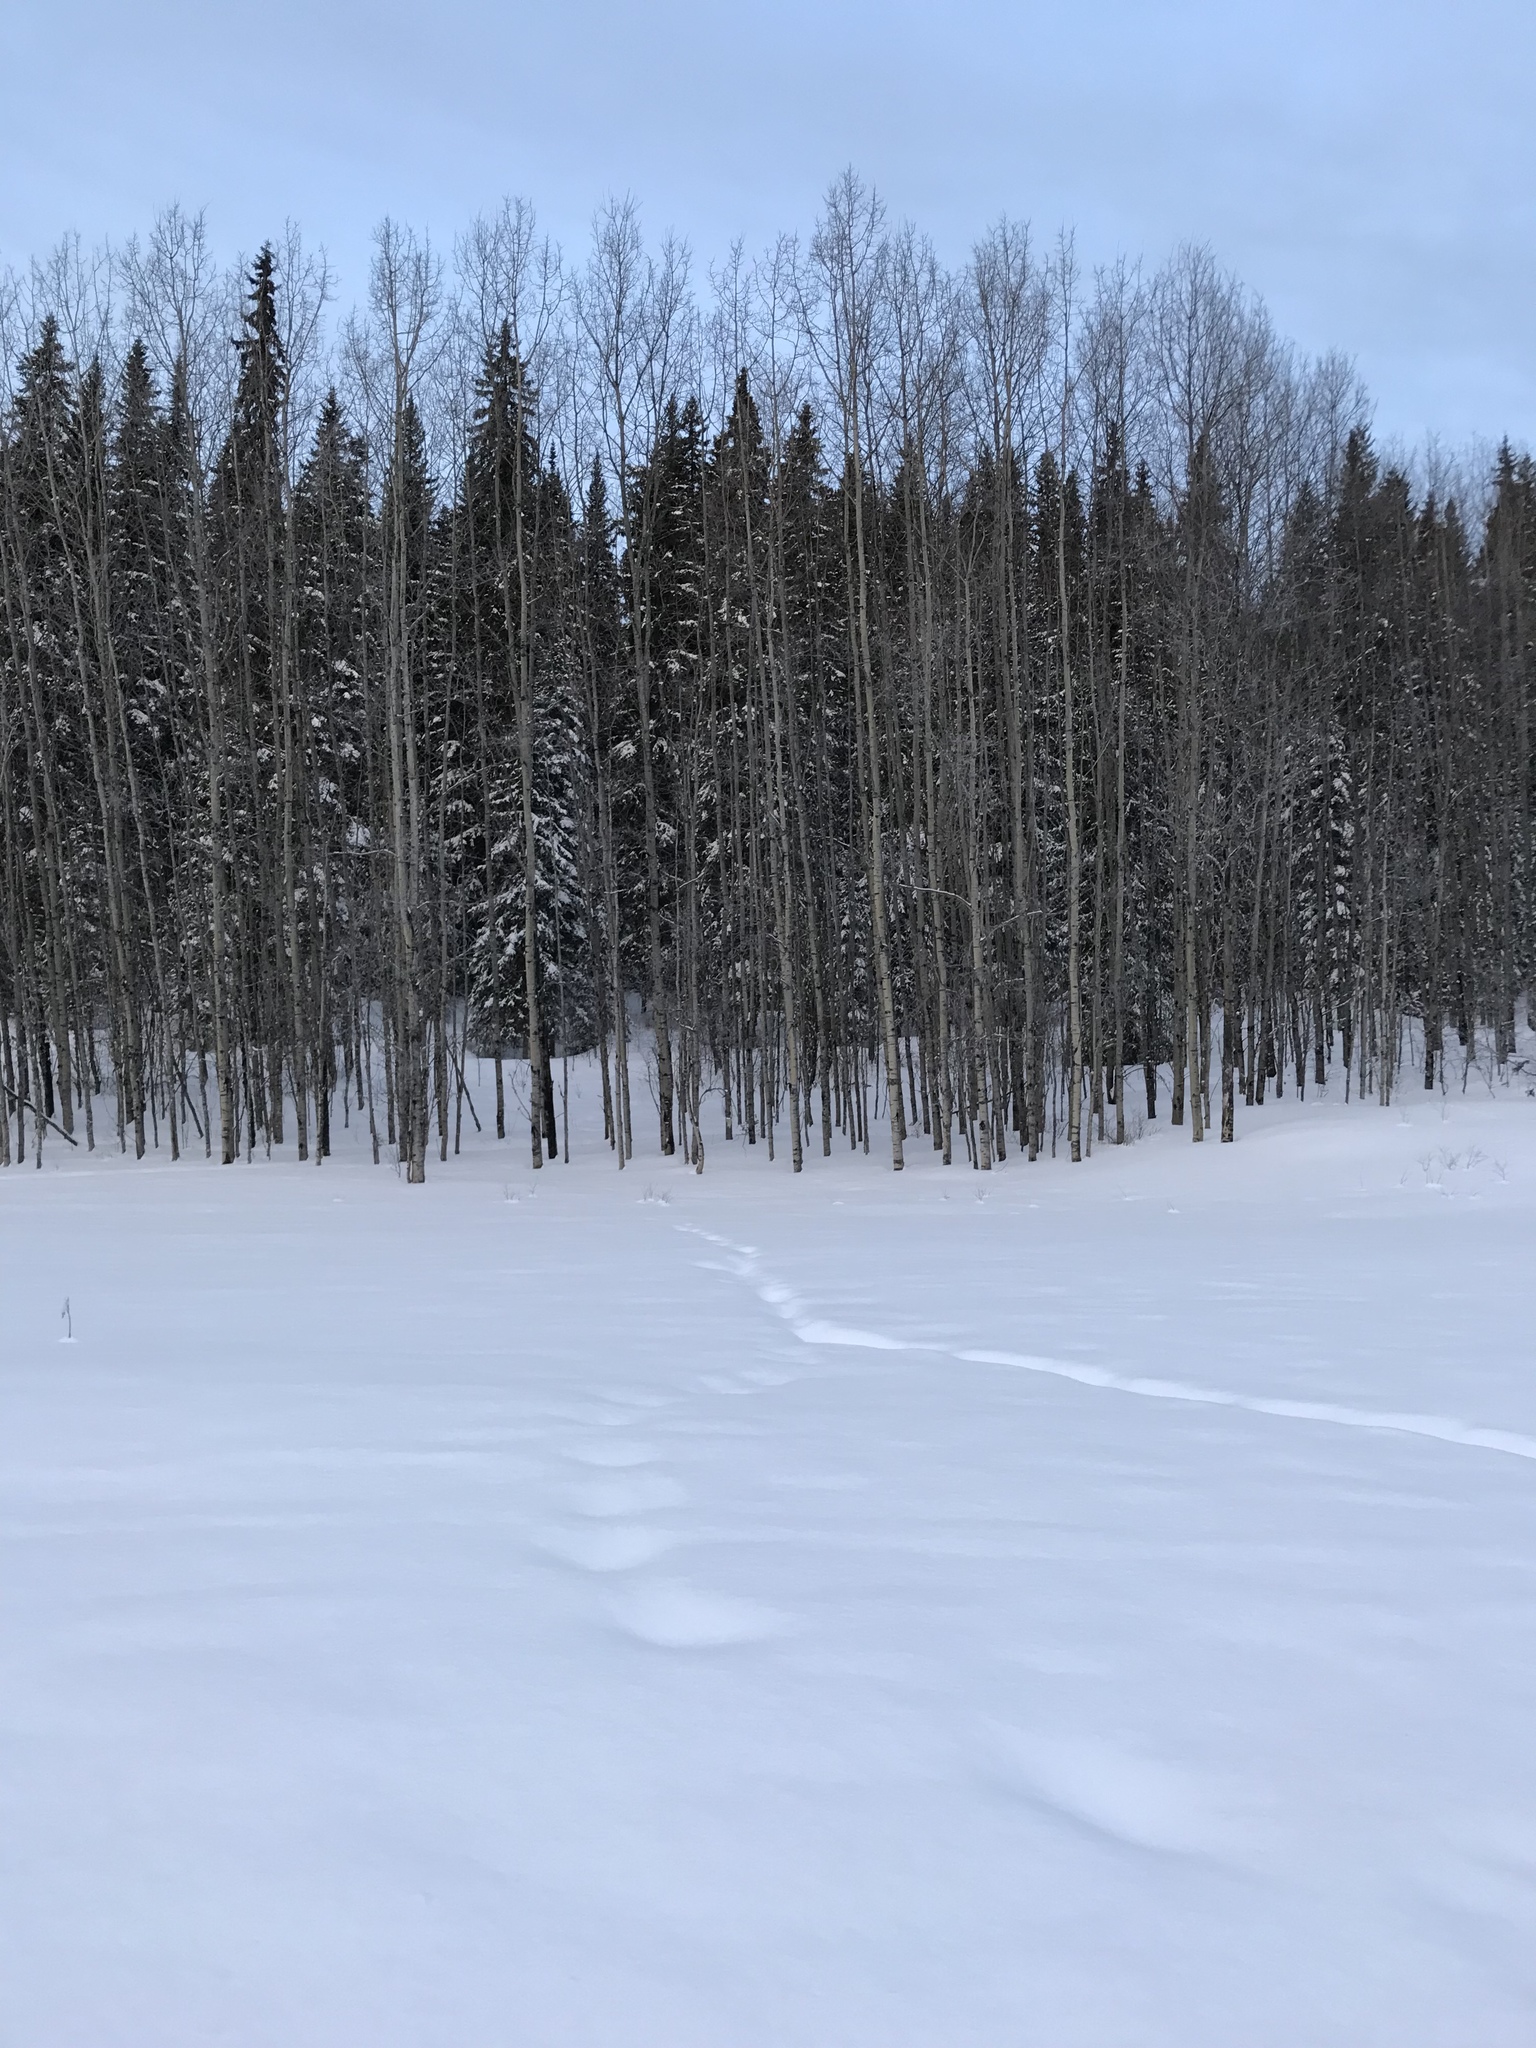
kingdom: Plantae
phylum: Tracheophyta
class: Magnoliopsida
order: Malpighiales
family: Salicaceae
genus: Populus
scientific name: Populus tremuloides
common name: Quaking aspen
